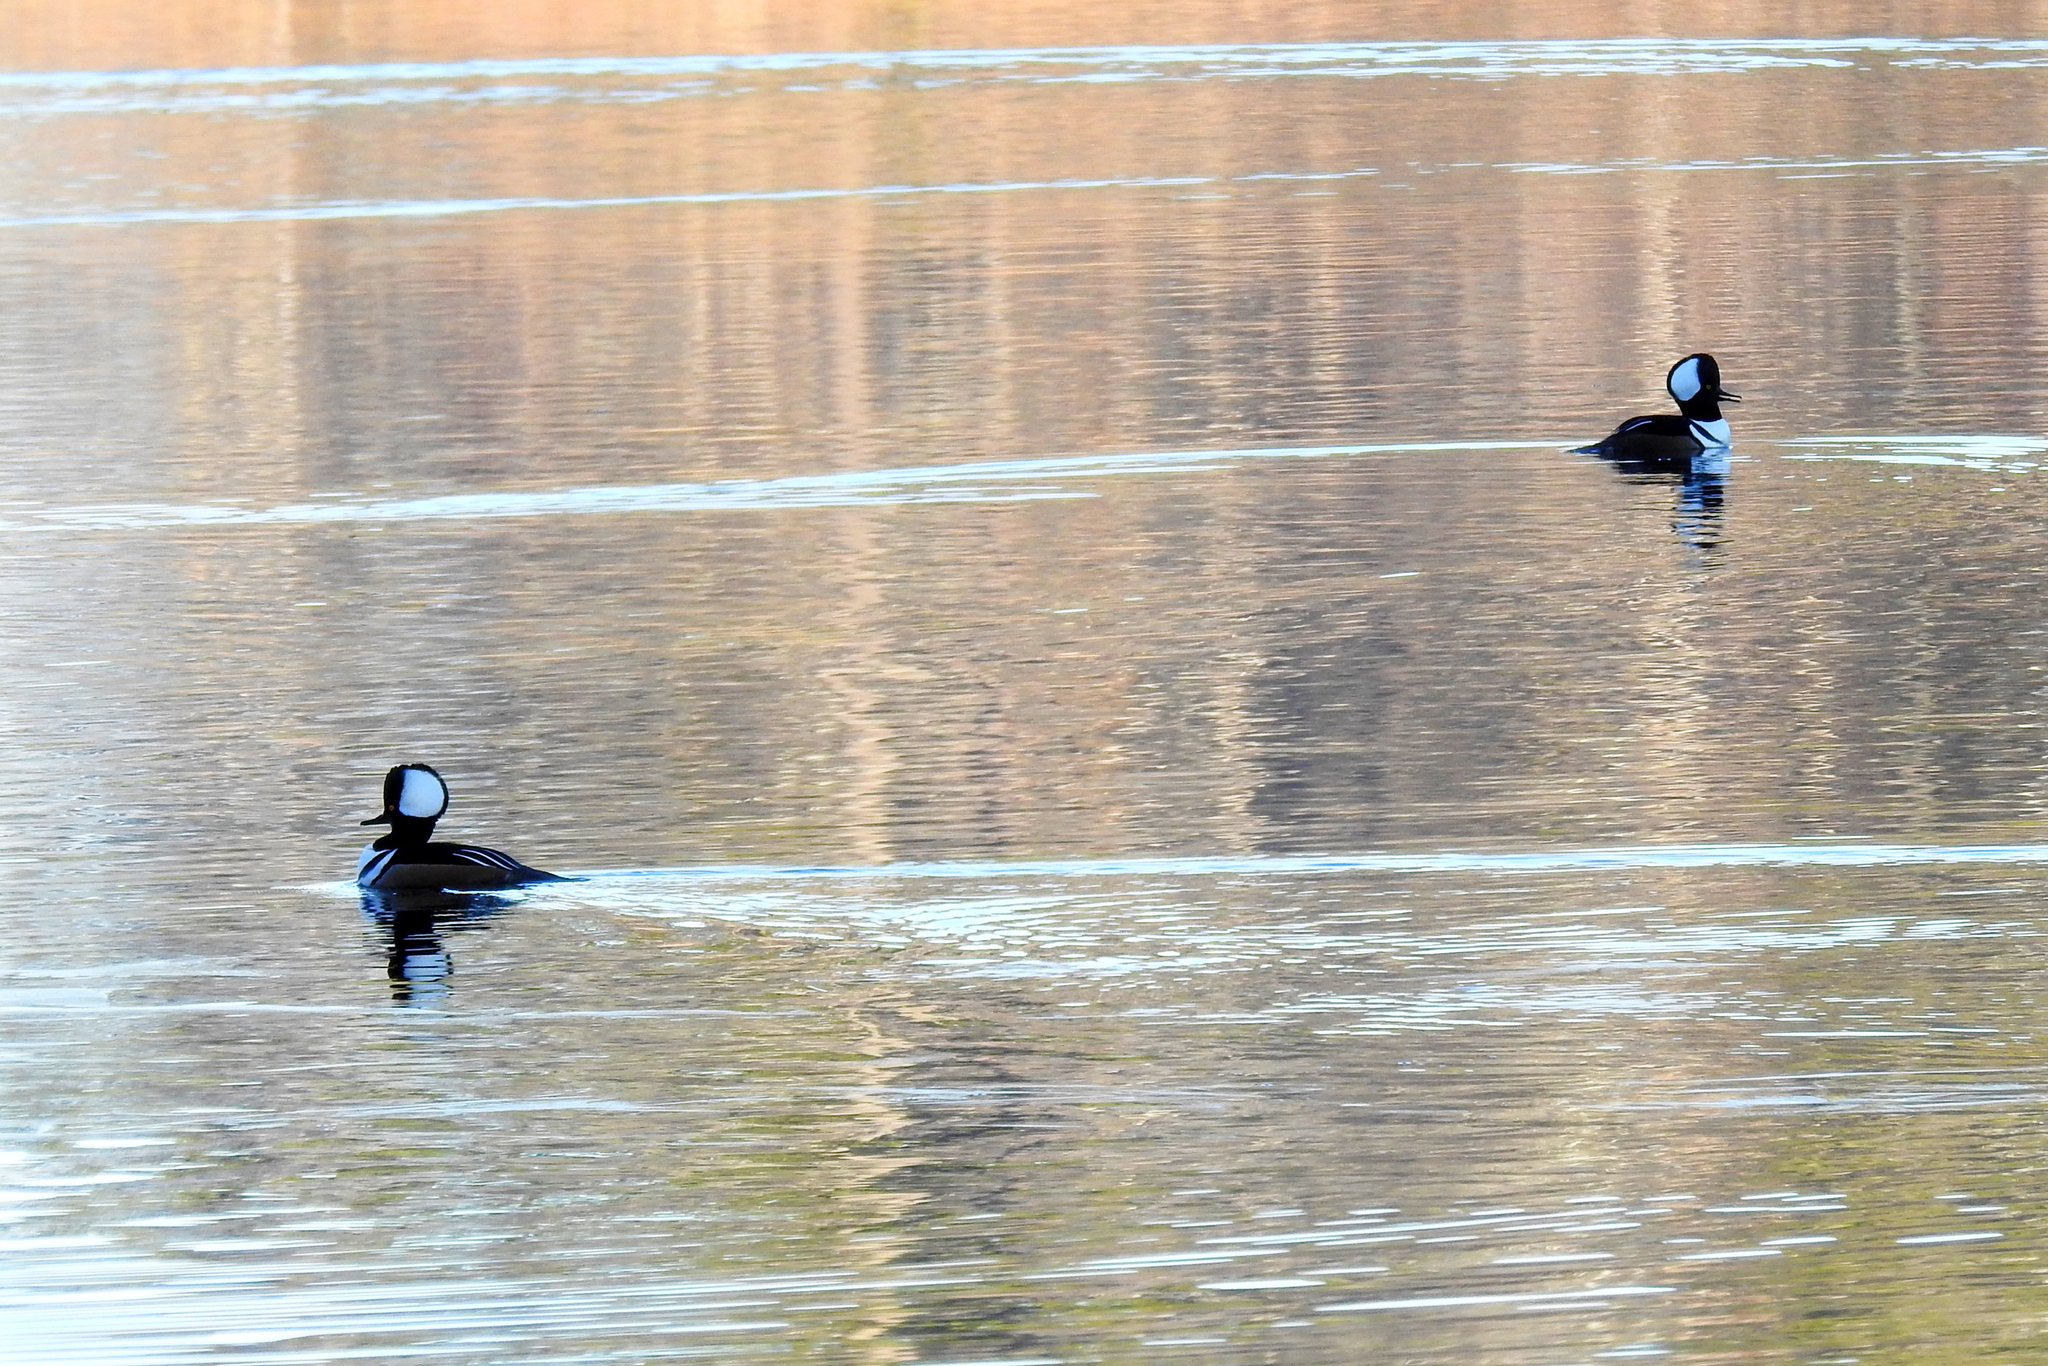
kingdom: Animalia
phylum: Chordata
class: Aves
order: Anseriformes
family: Anatidae
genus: Lophodytes
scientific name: Lophodytes cucullatus
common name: Hooded merganser
